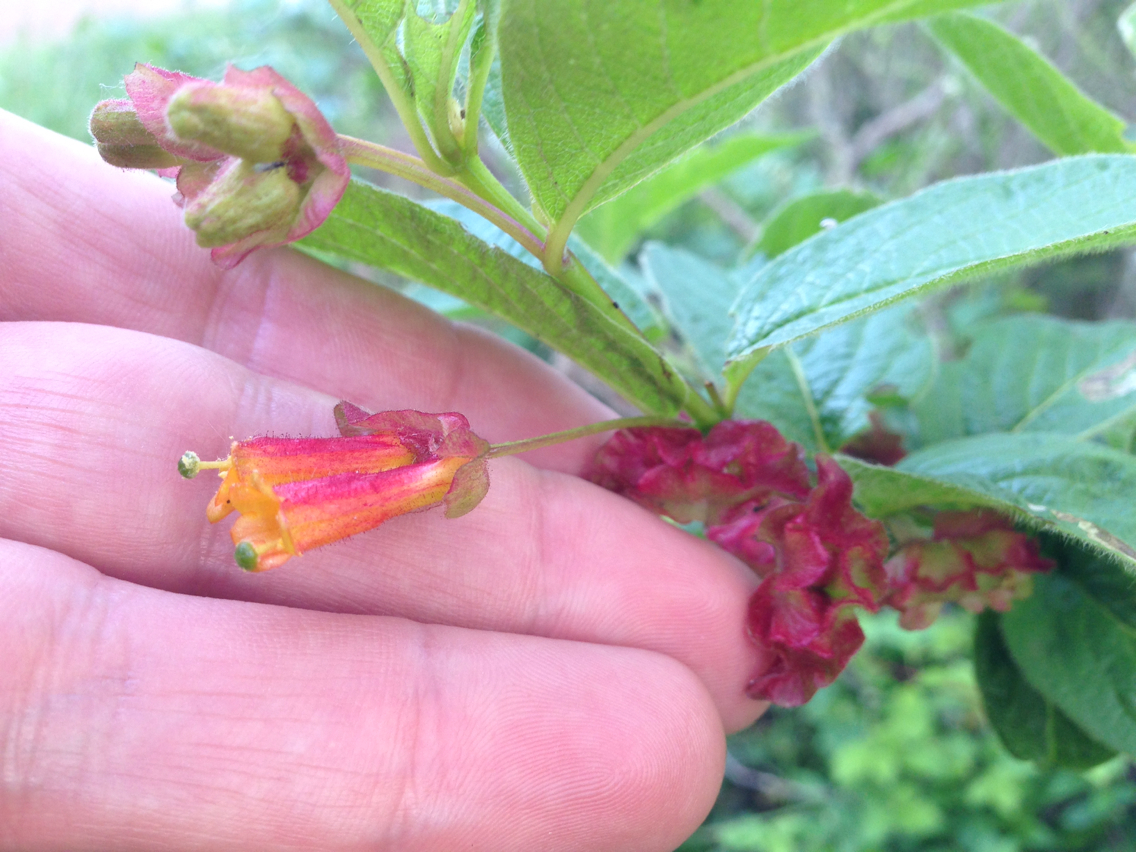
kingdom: Plantae
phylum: Tracheophyta
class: Magnoliopsida
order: Dipsacales
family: Caprifoliaceae
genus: Lonicera
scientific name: Lonicera involucrata
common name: Californian honeysuckle
